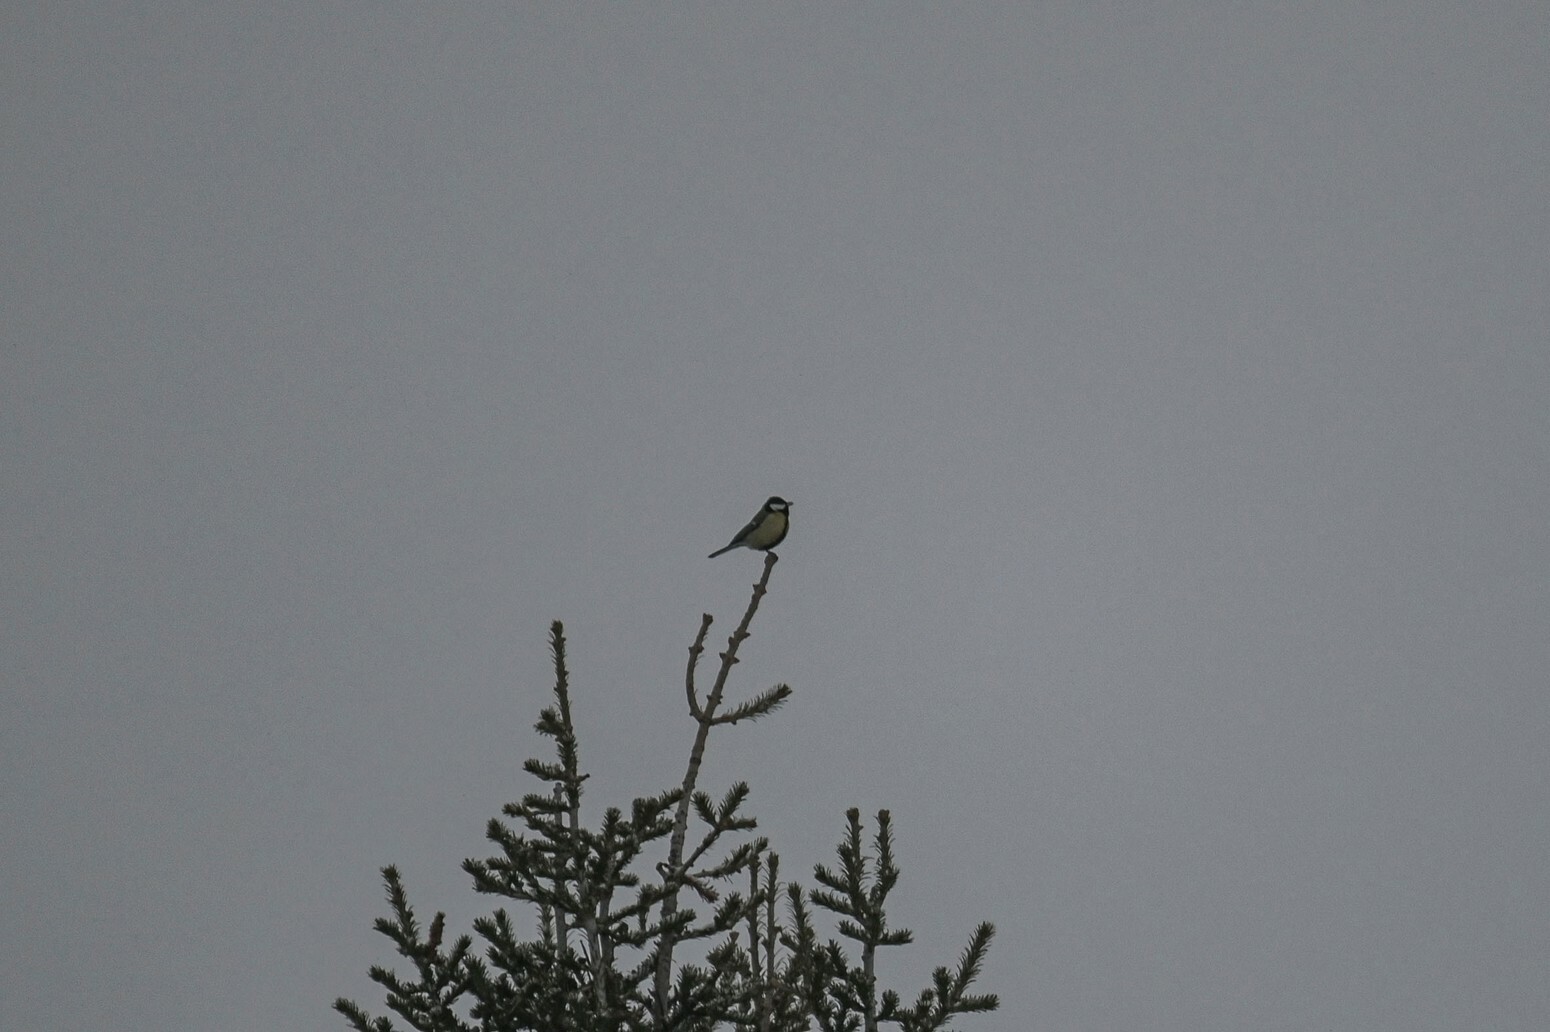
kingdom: Animalia
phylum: Chordata
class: Aves
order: Passeriformes
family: Paridae
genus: Parus
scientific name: Parus major
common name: Great tit
